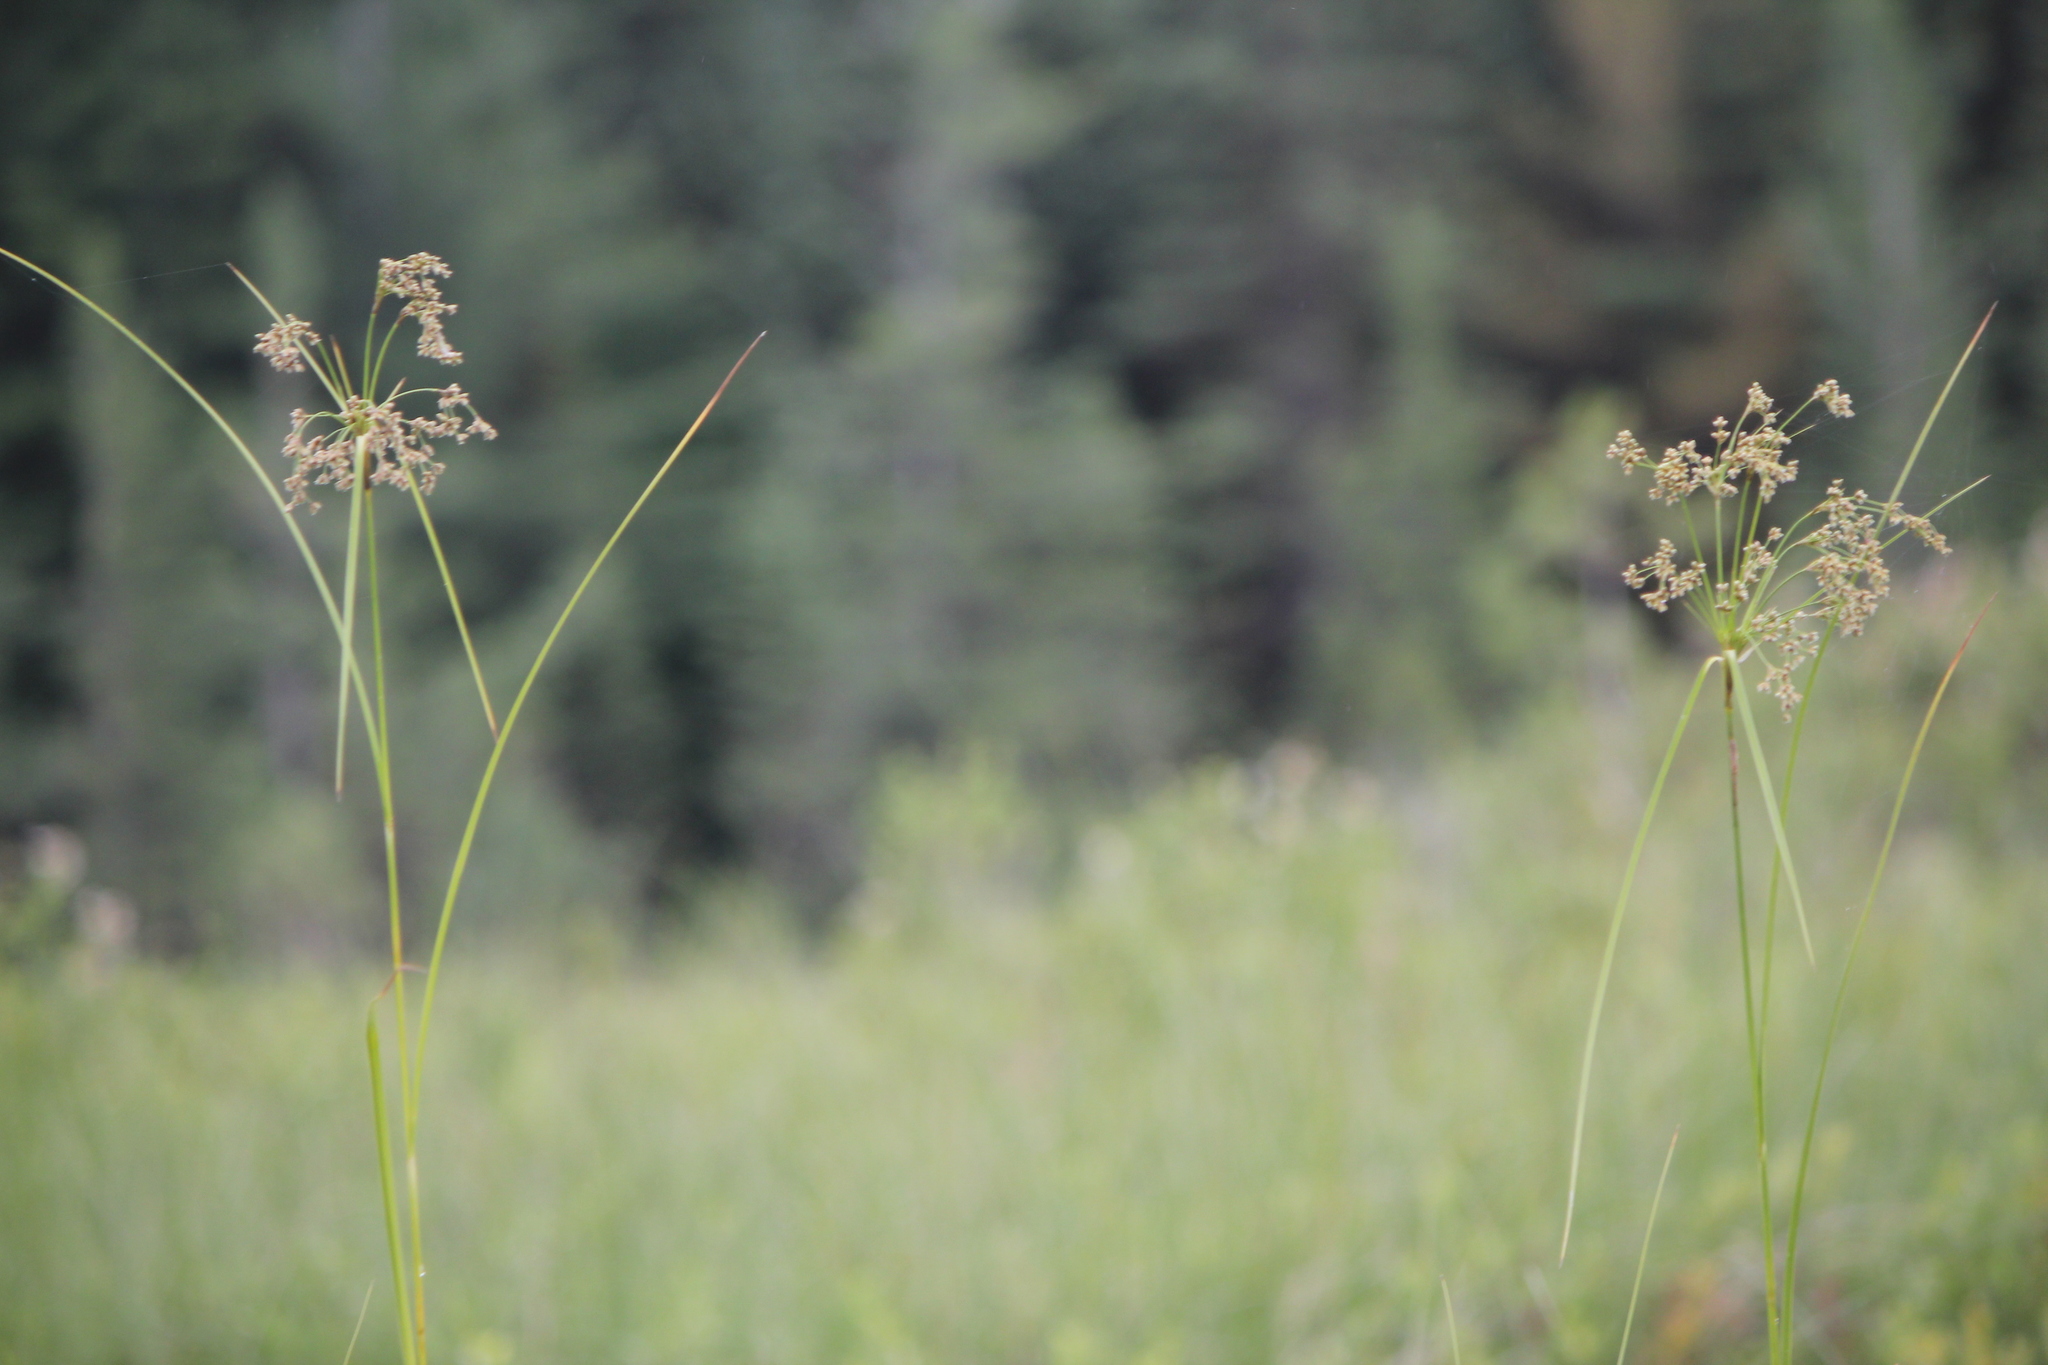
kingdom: Plantae
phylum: Tracheophyta
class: Liliopsida
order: Poales
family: Cyperaceae
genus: Scirpus
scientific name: Scirpus cyperinus
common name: Black-sheathed bulrush
